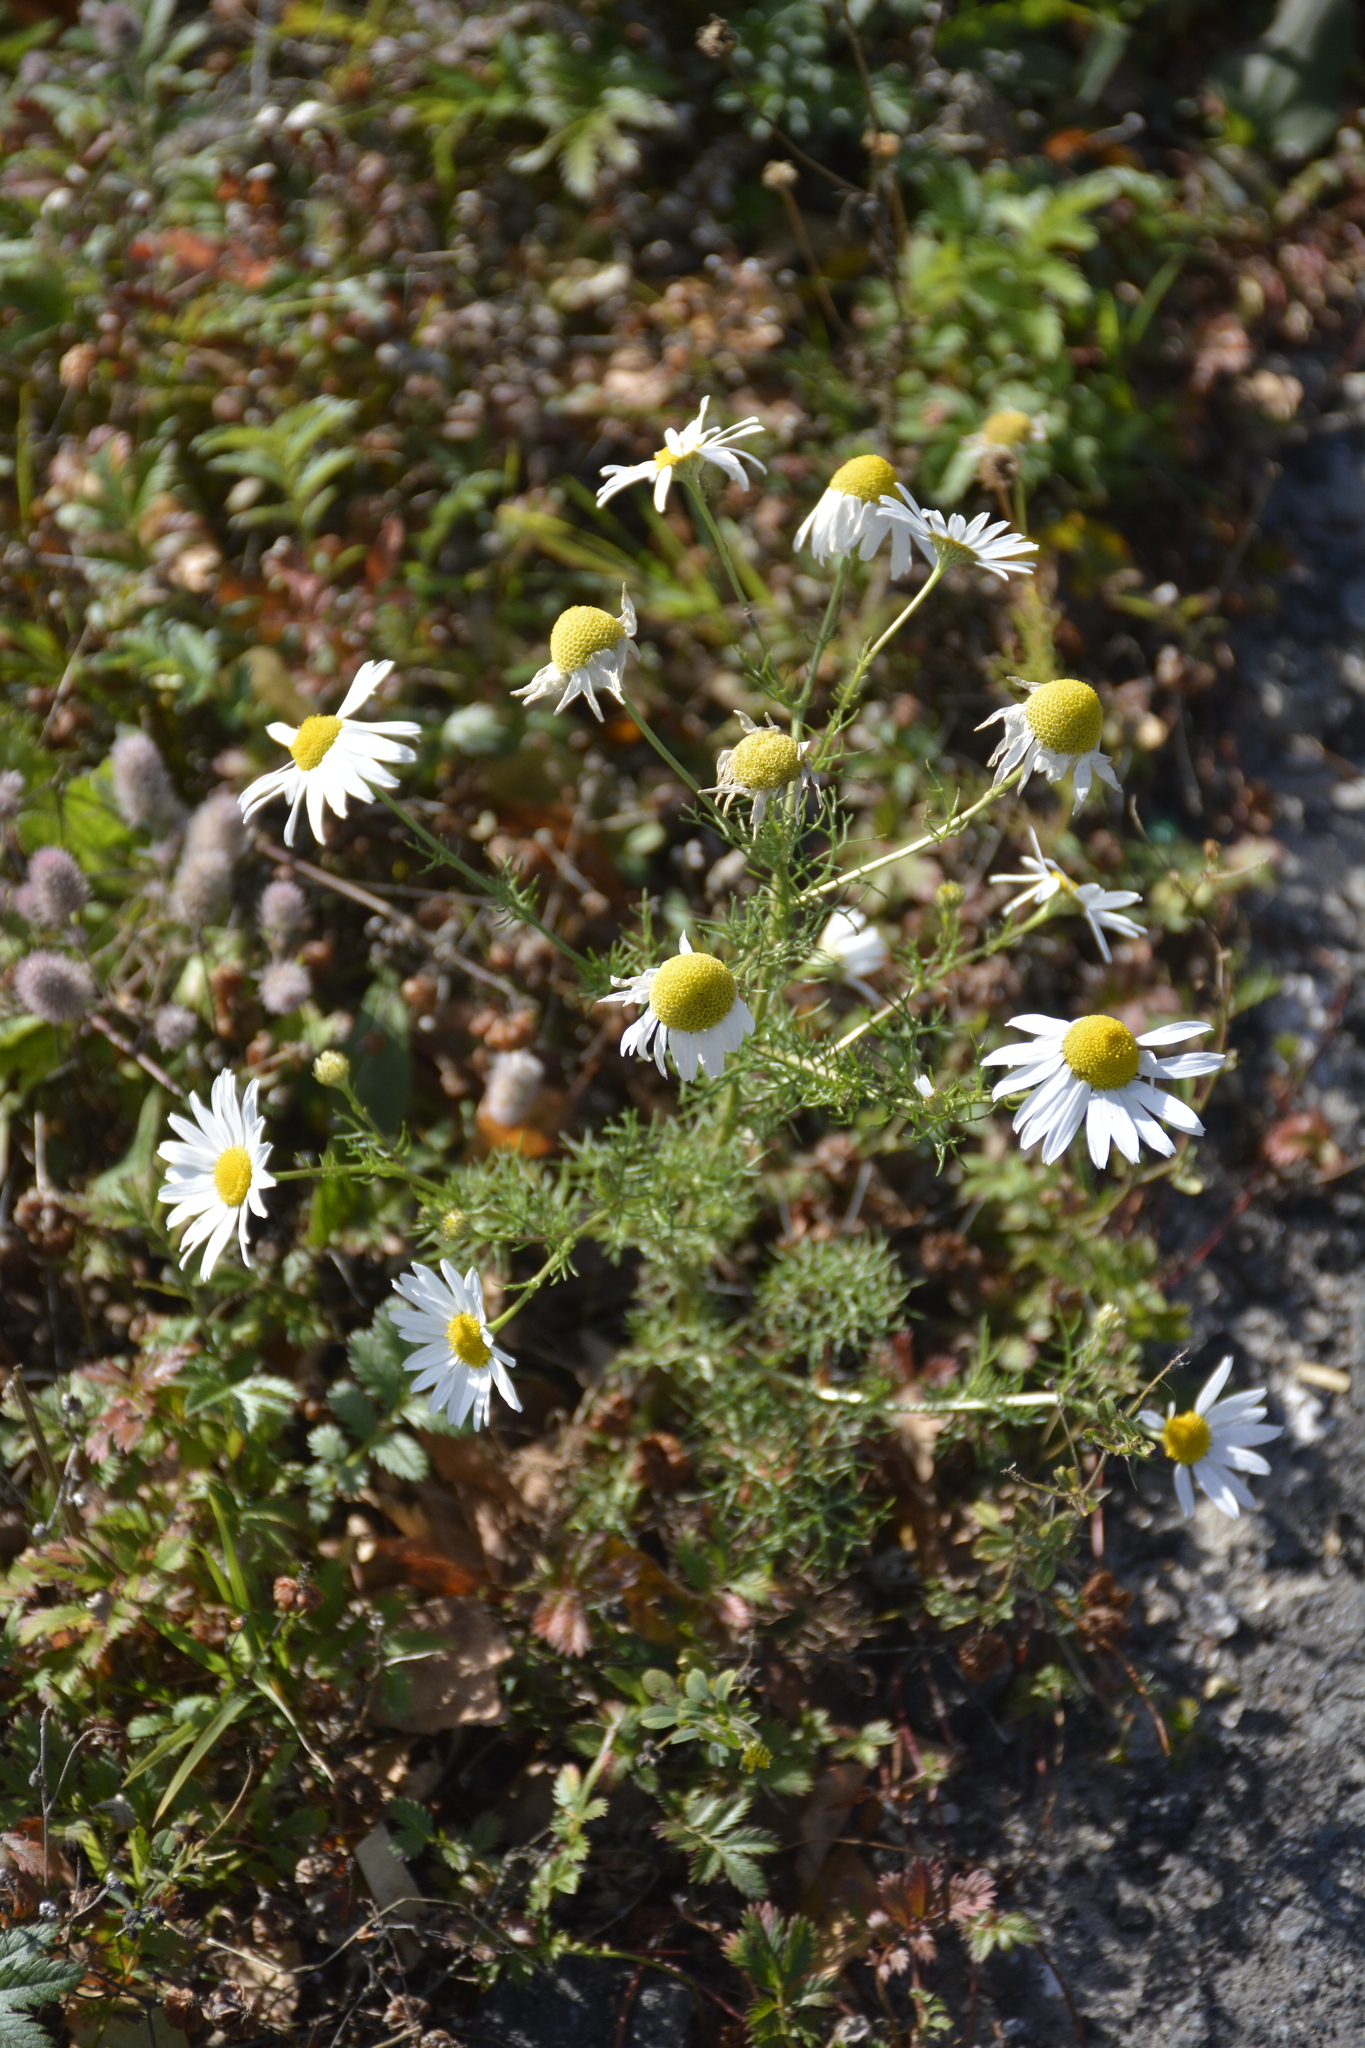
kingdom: Plantae
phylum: Tracheophyta
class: Magnoliopsida
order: Asterales
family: Asteraceae
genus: Tripleurospermum
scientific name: Tripleurospermum inodorum
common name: Scentless mayweed
